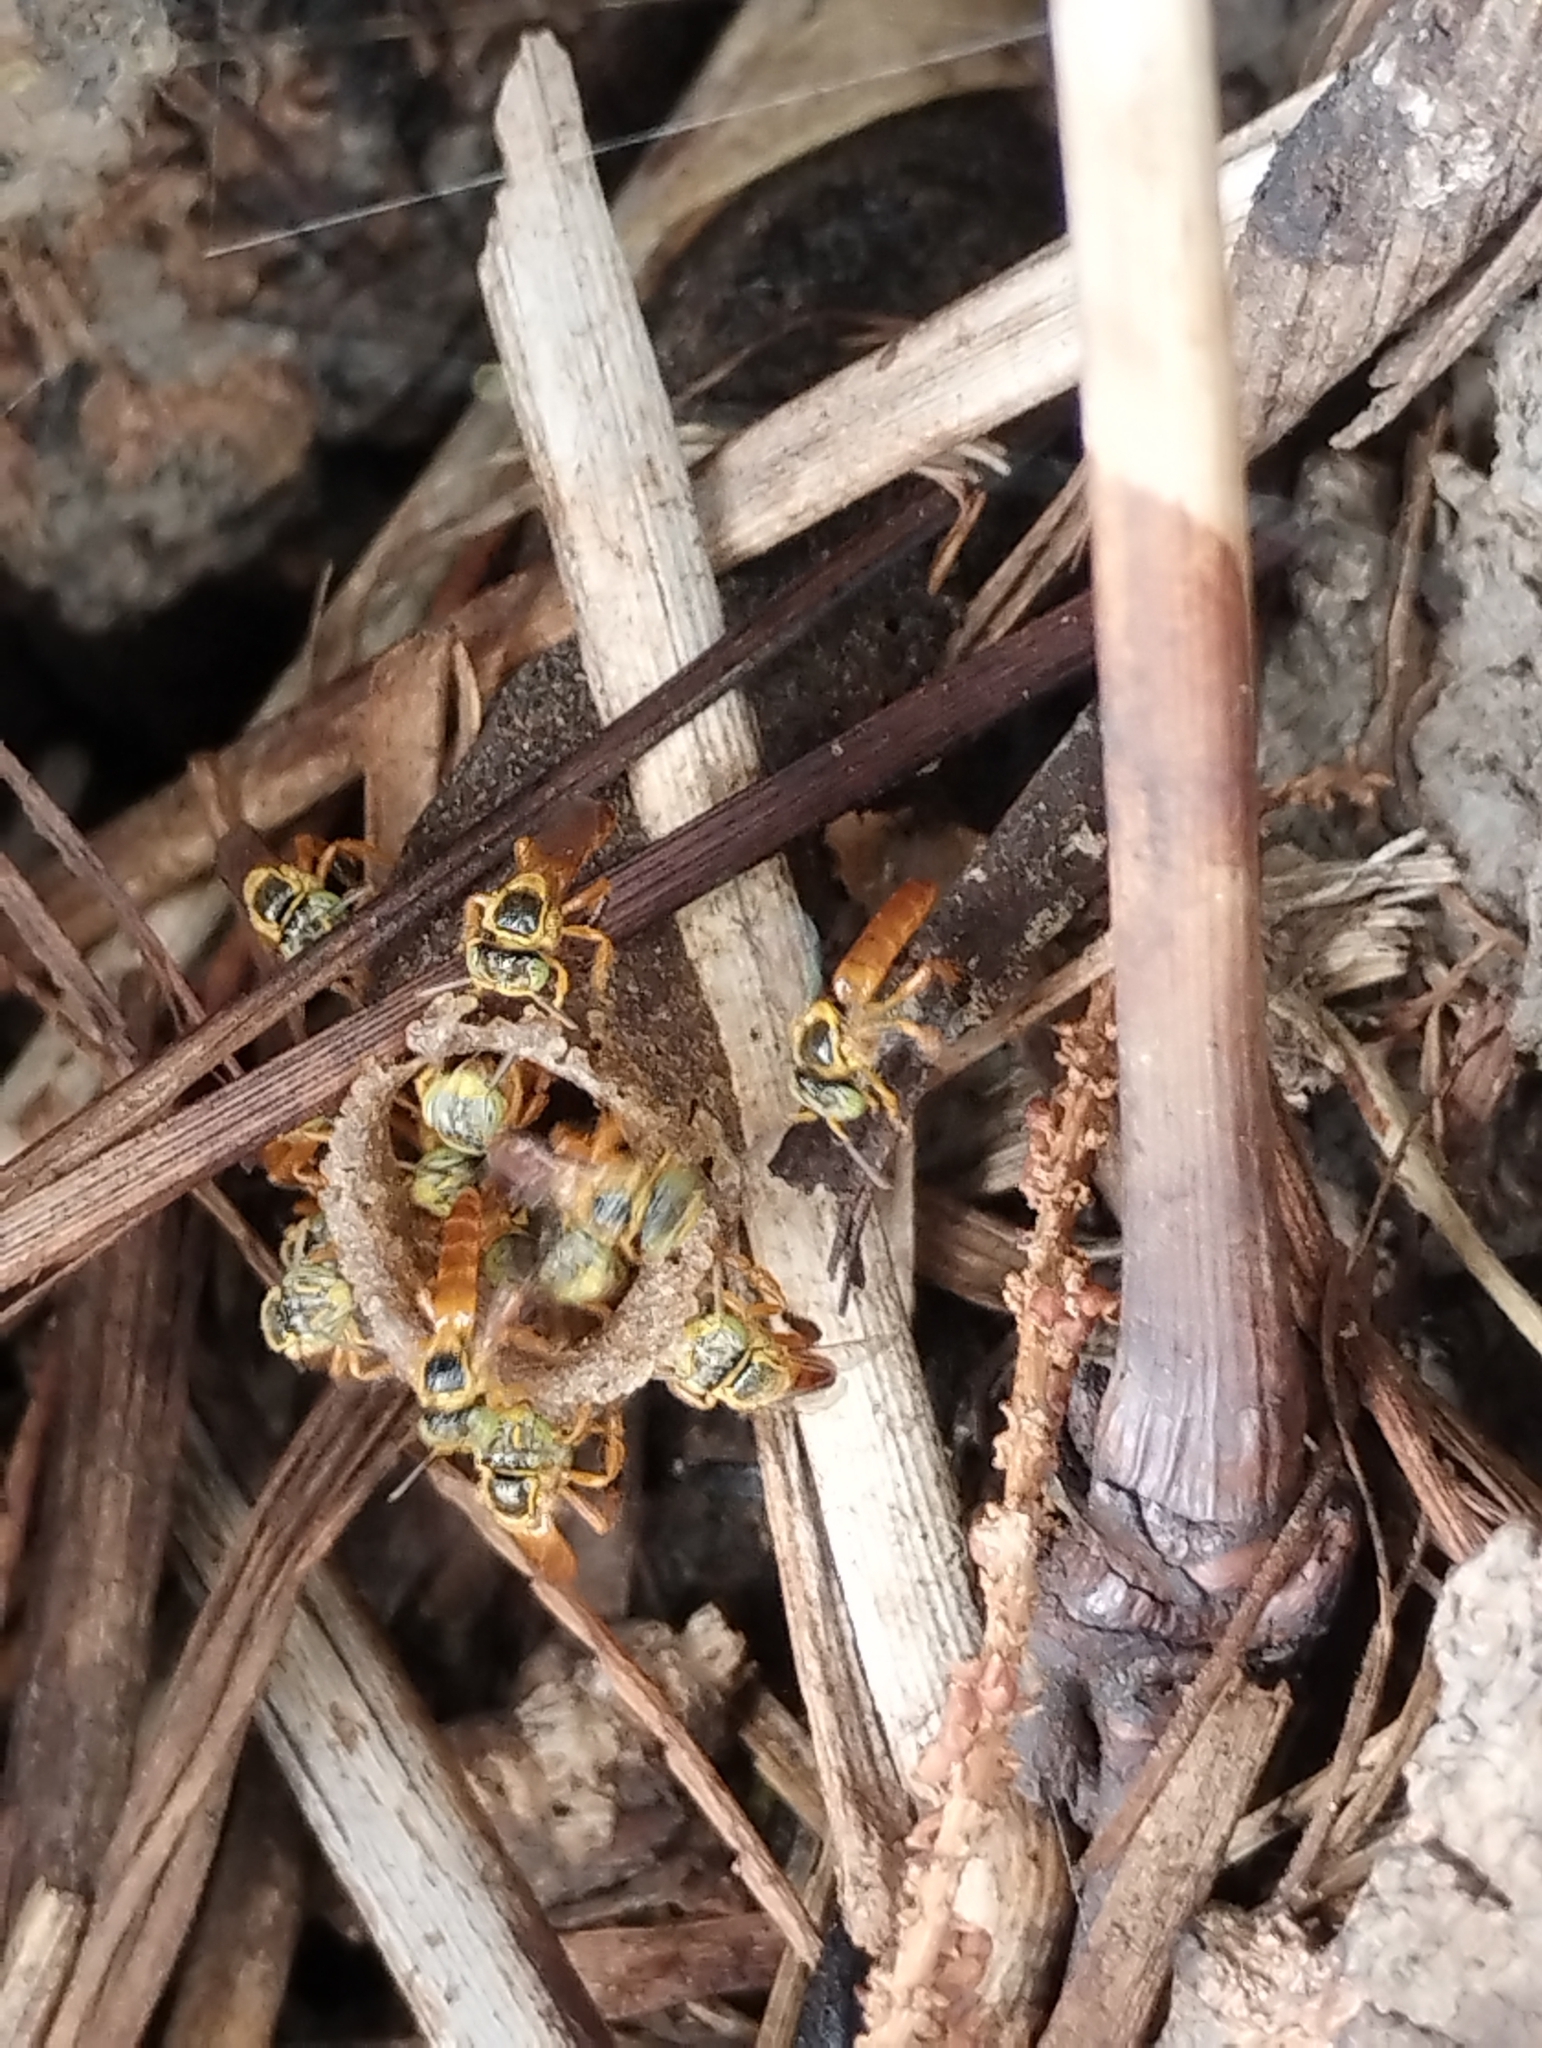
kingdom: Animalia
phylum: Arthropoda
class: Insecta
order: Hymenoptera
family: Apidae
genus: Tetragonisca
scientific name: Tetragonisca fiebrigi
